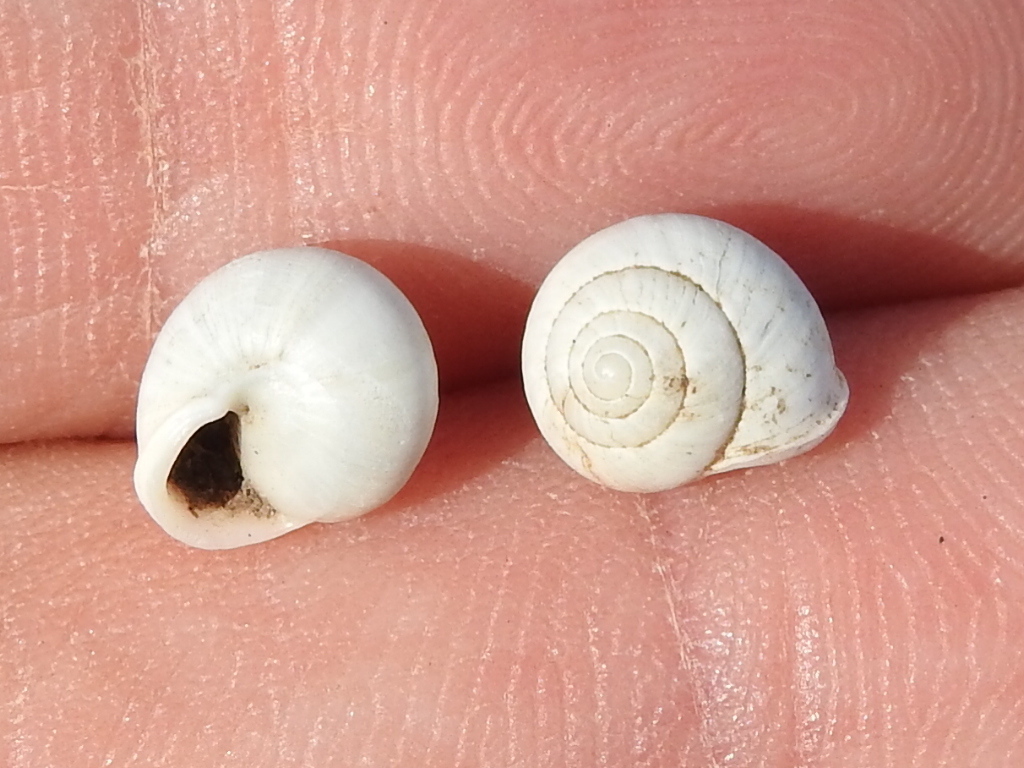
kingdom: Animalia
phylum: Mollusca
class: Gastropoda
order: Cycloneritida
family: Helicinidae
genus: Helicina
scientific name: Helicina orbiculata
